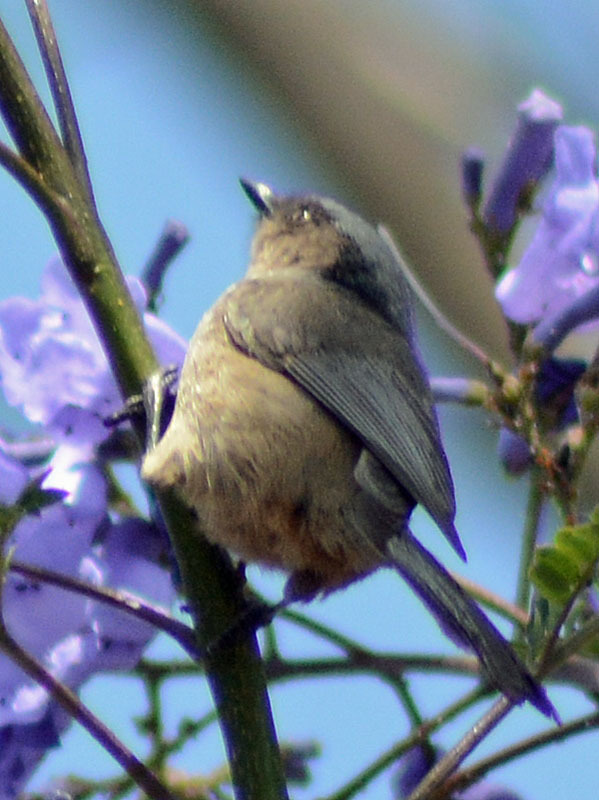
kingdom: Animalia
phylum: Chordata
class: Aves
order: Passeriformes
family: Aegithalidae
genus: Psaltriparus
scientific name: Psaltriparus minimus
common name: American bushtit
